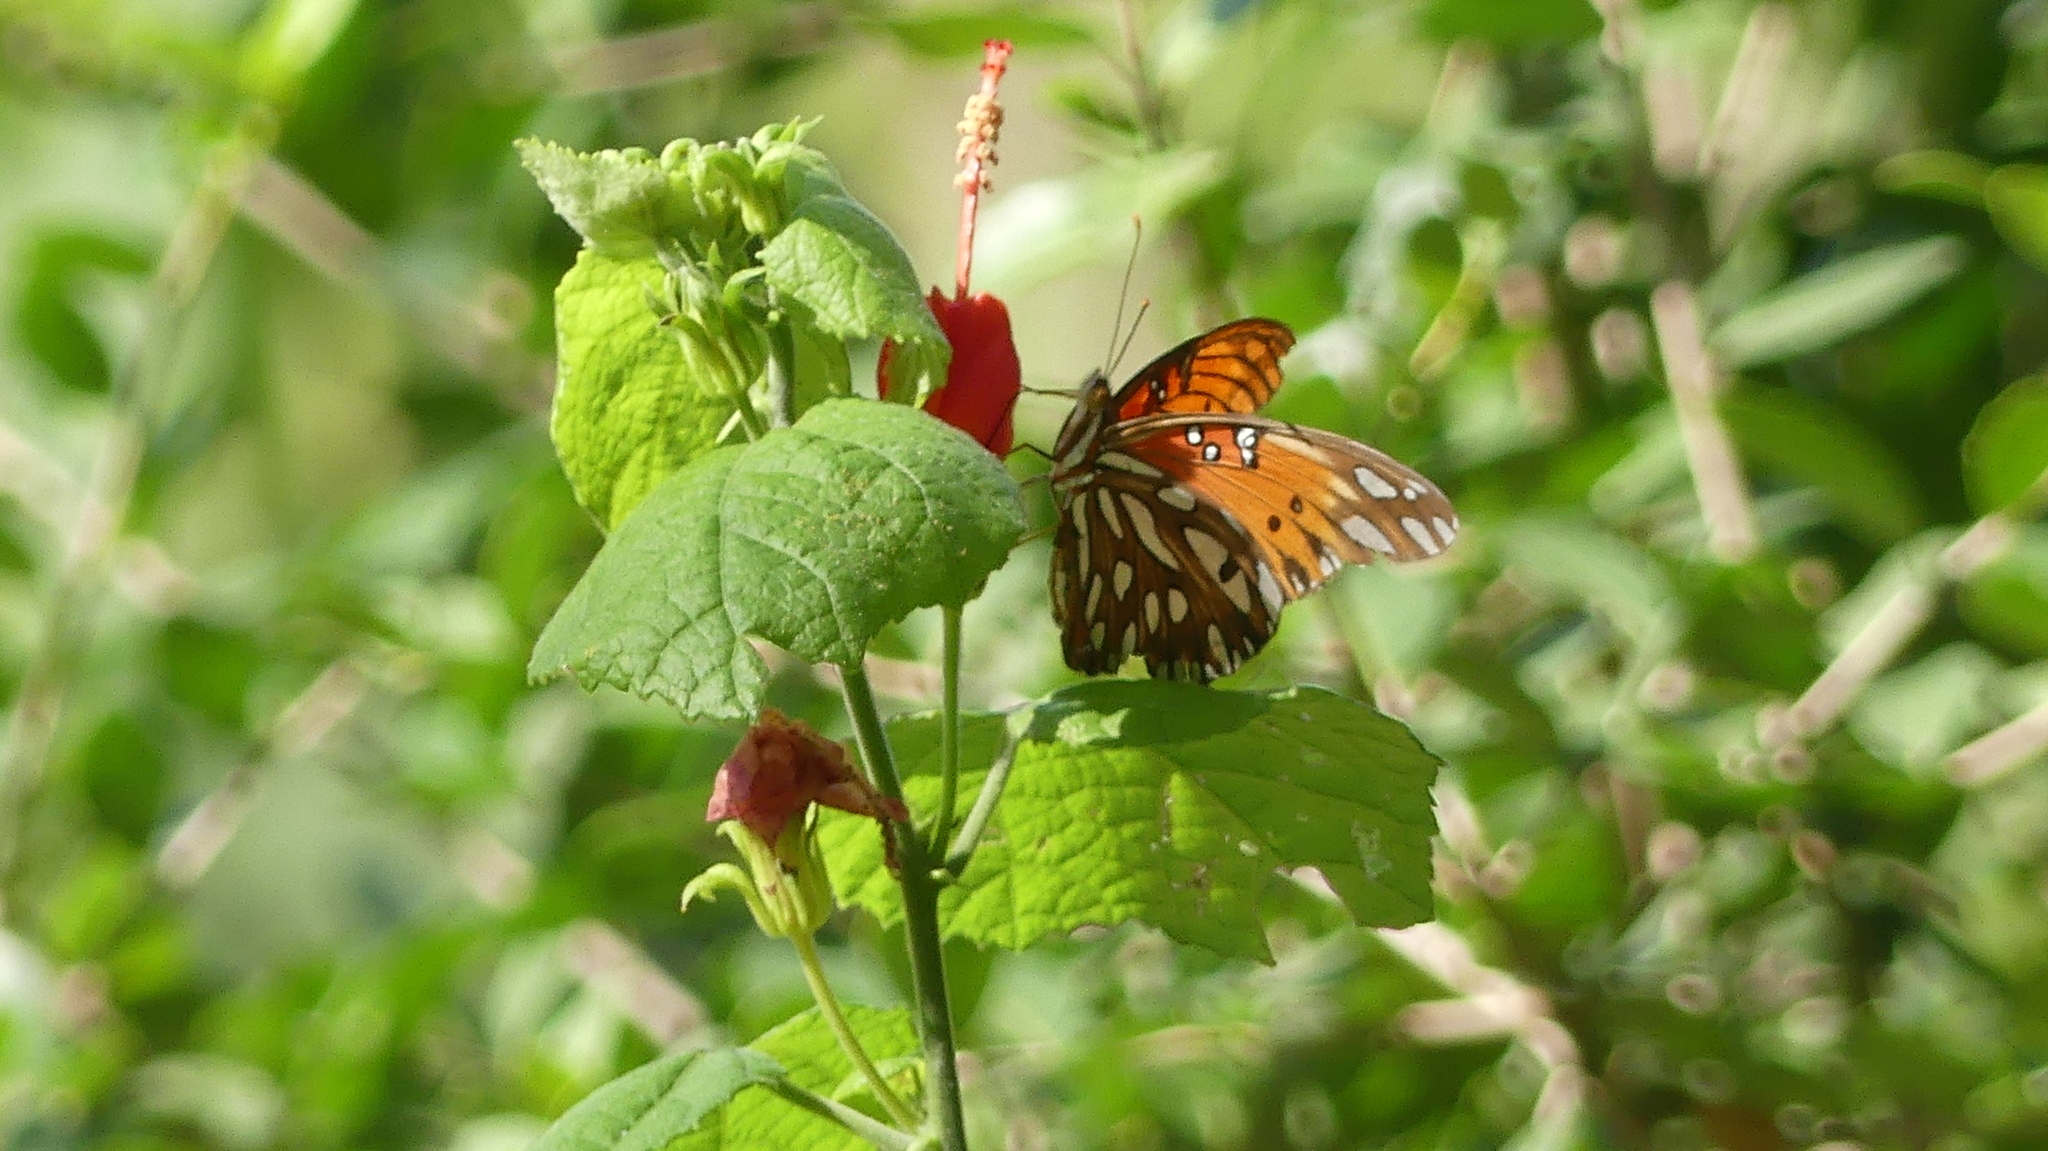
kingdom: Animalia
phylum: Arthropoda
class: Insecta
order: Lepidoptera
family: Nymphalidae
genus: Dione
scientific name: Dione vanillae
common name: Gulf fritillary
